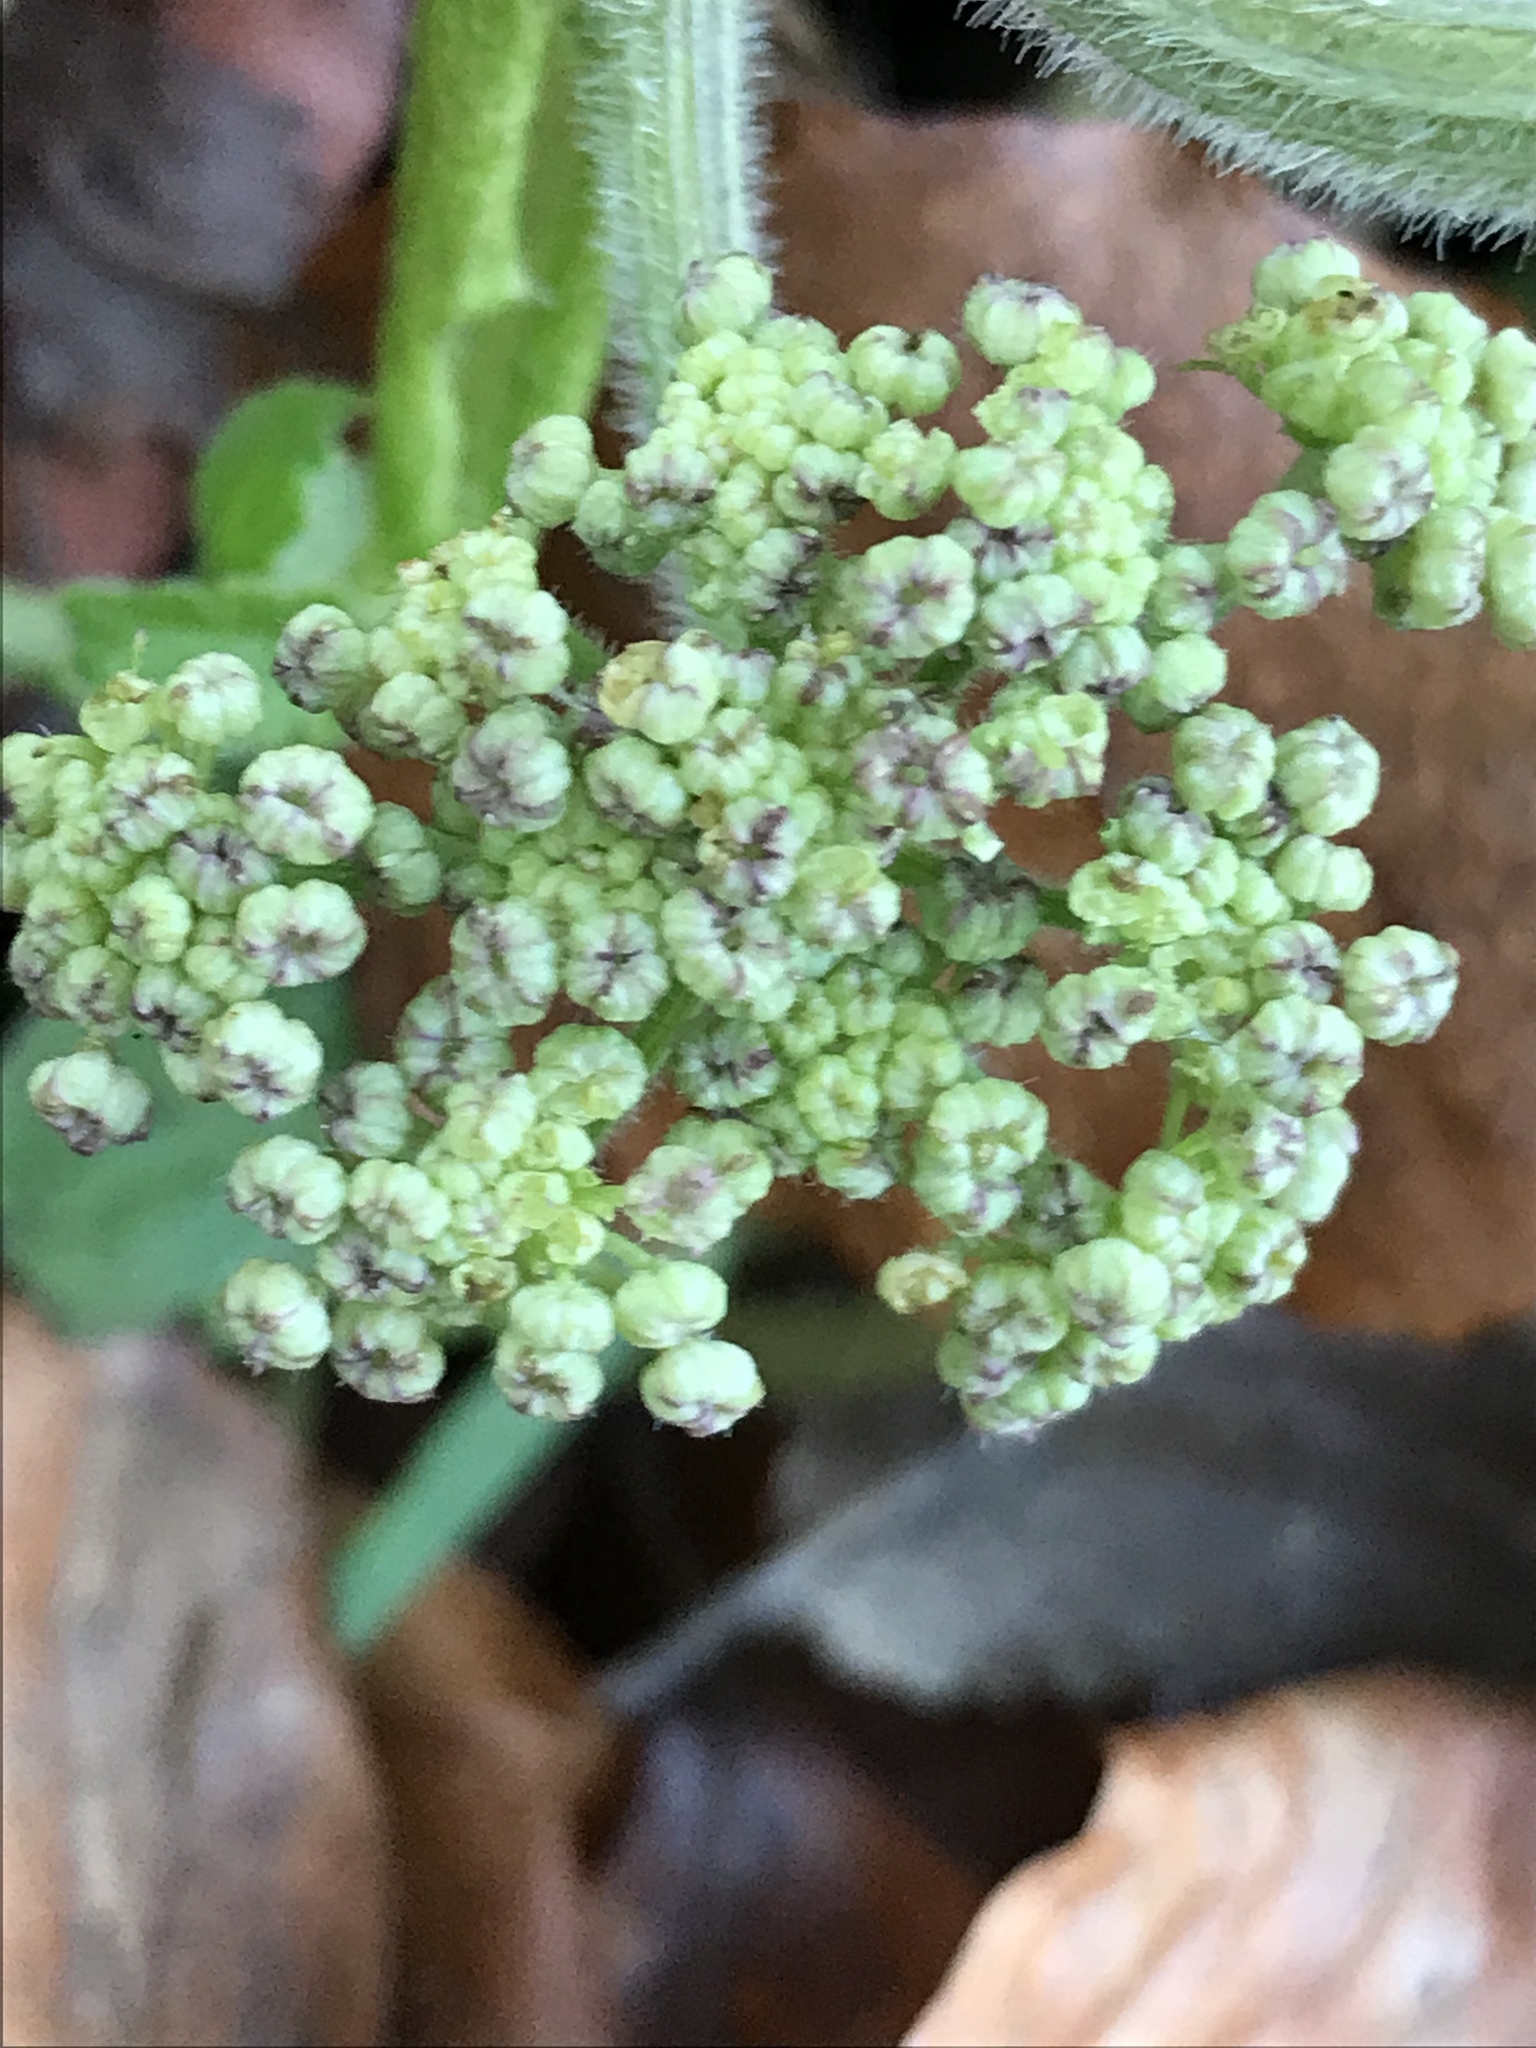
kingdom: Plantae
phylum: Tracheophyta
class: Magnoliopsida
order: Apiales
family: Apiaceae
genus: Heracleum
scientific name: Heracleum sphondylium
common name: Hogweed
